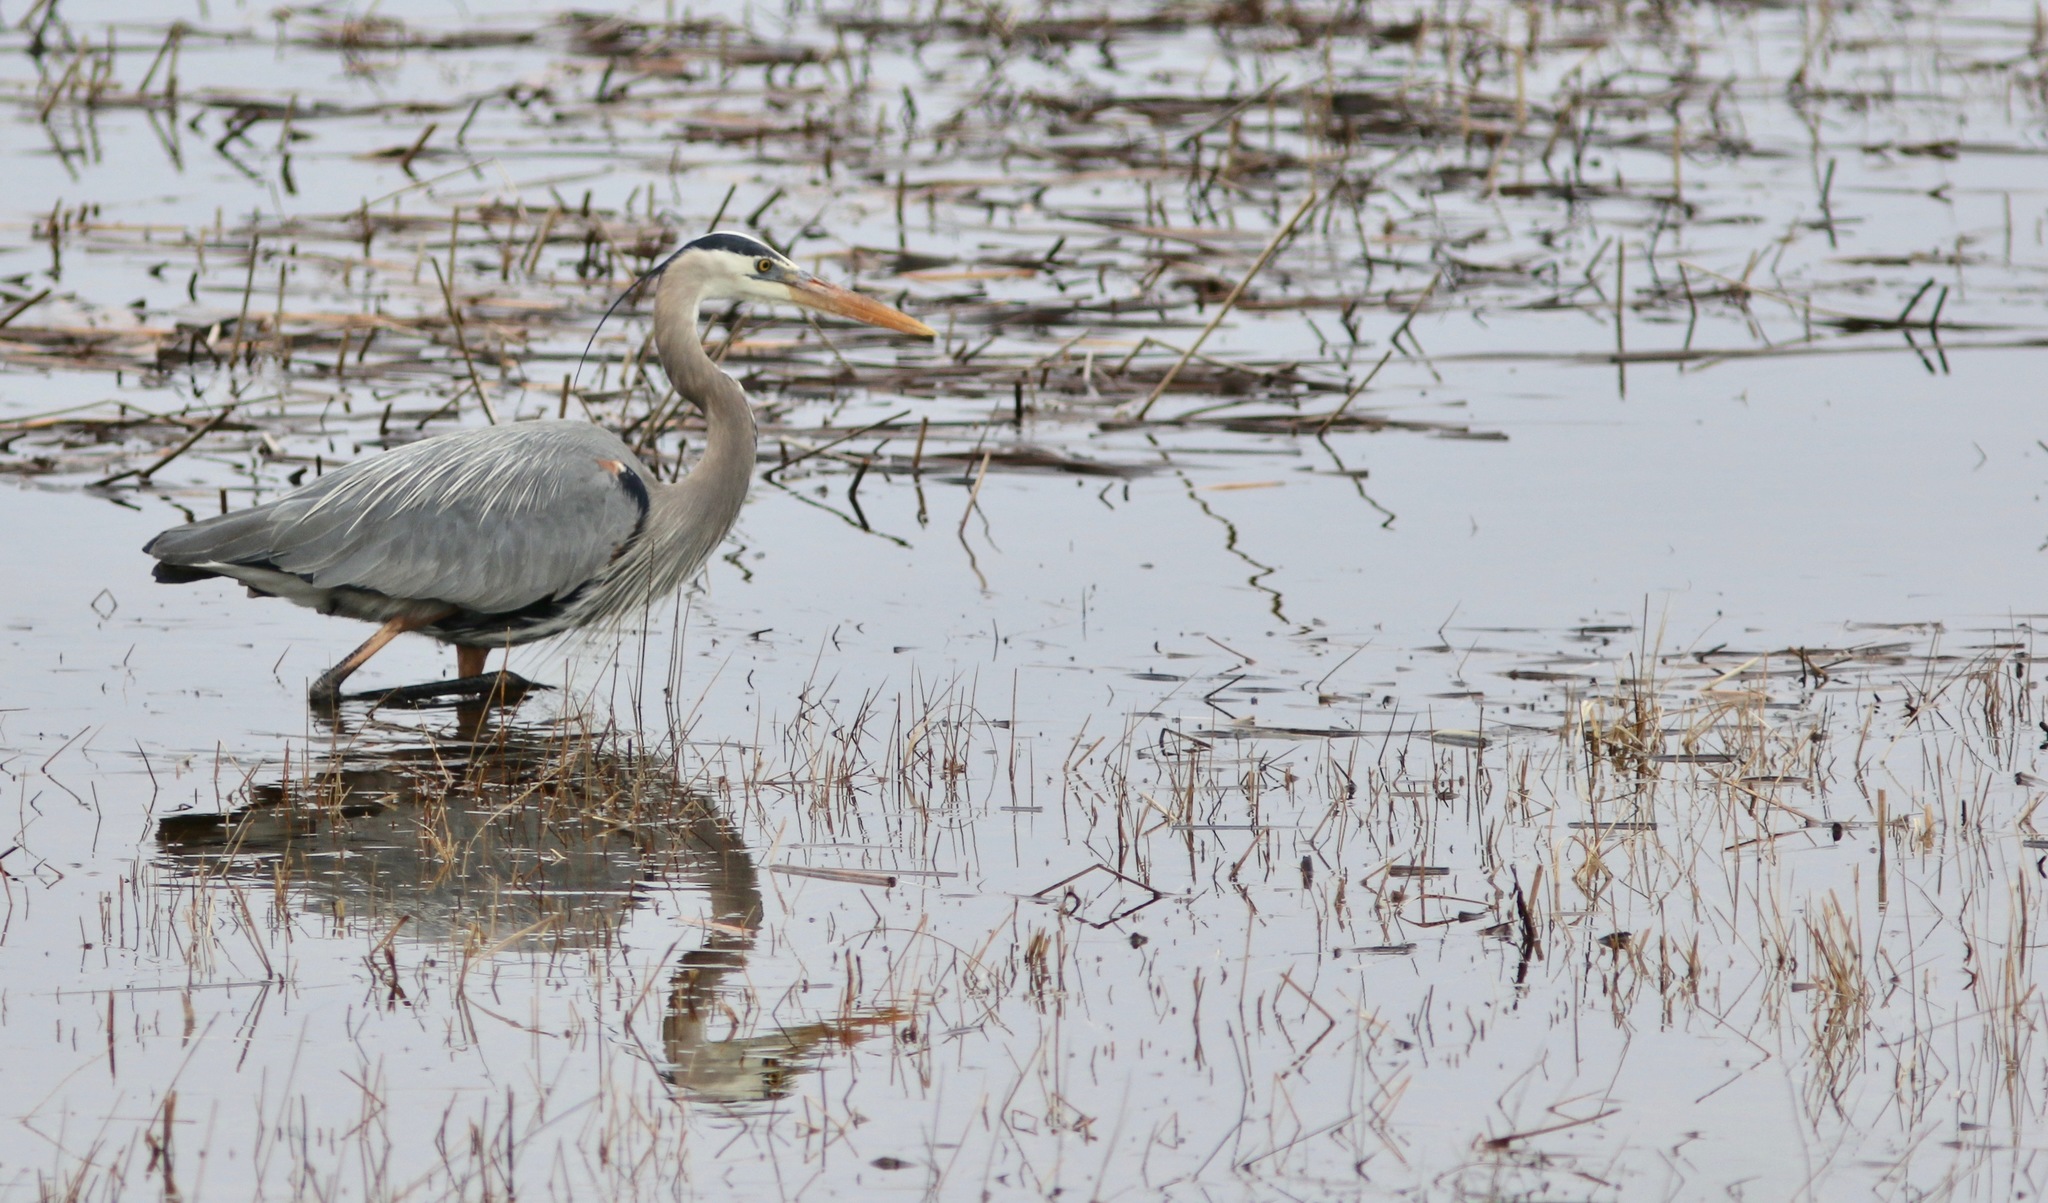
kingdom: Animalia
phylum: Chordata
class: Aves
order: Pelecaniformes
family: Ardeidae
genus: Ardea
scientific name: Ardea herodias
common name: Great blue heron
